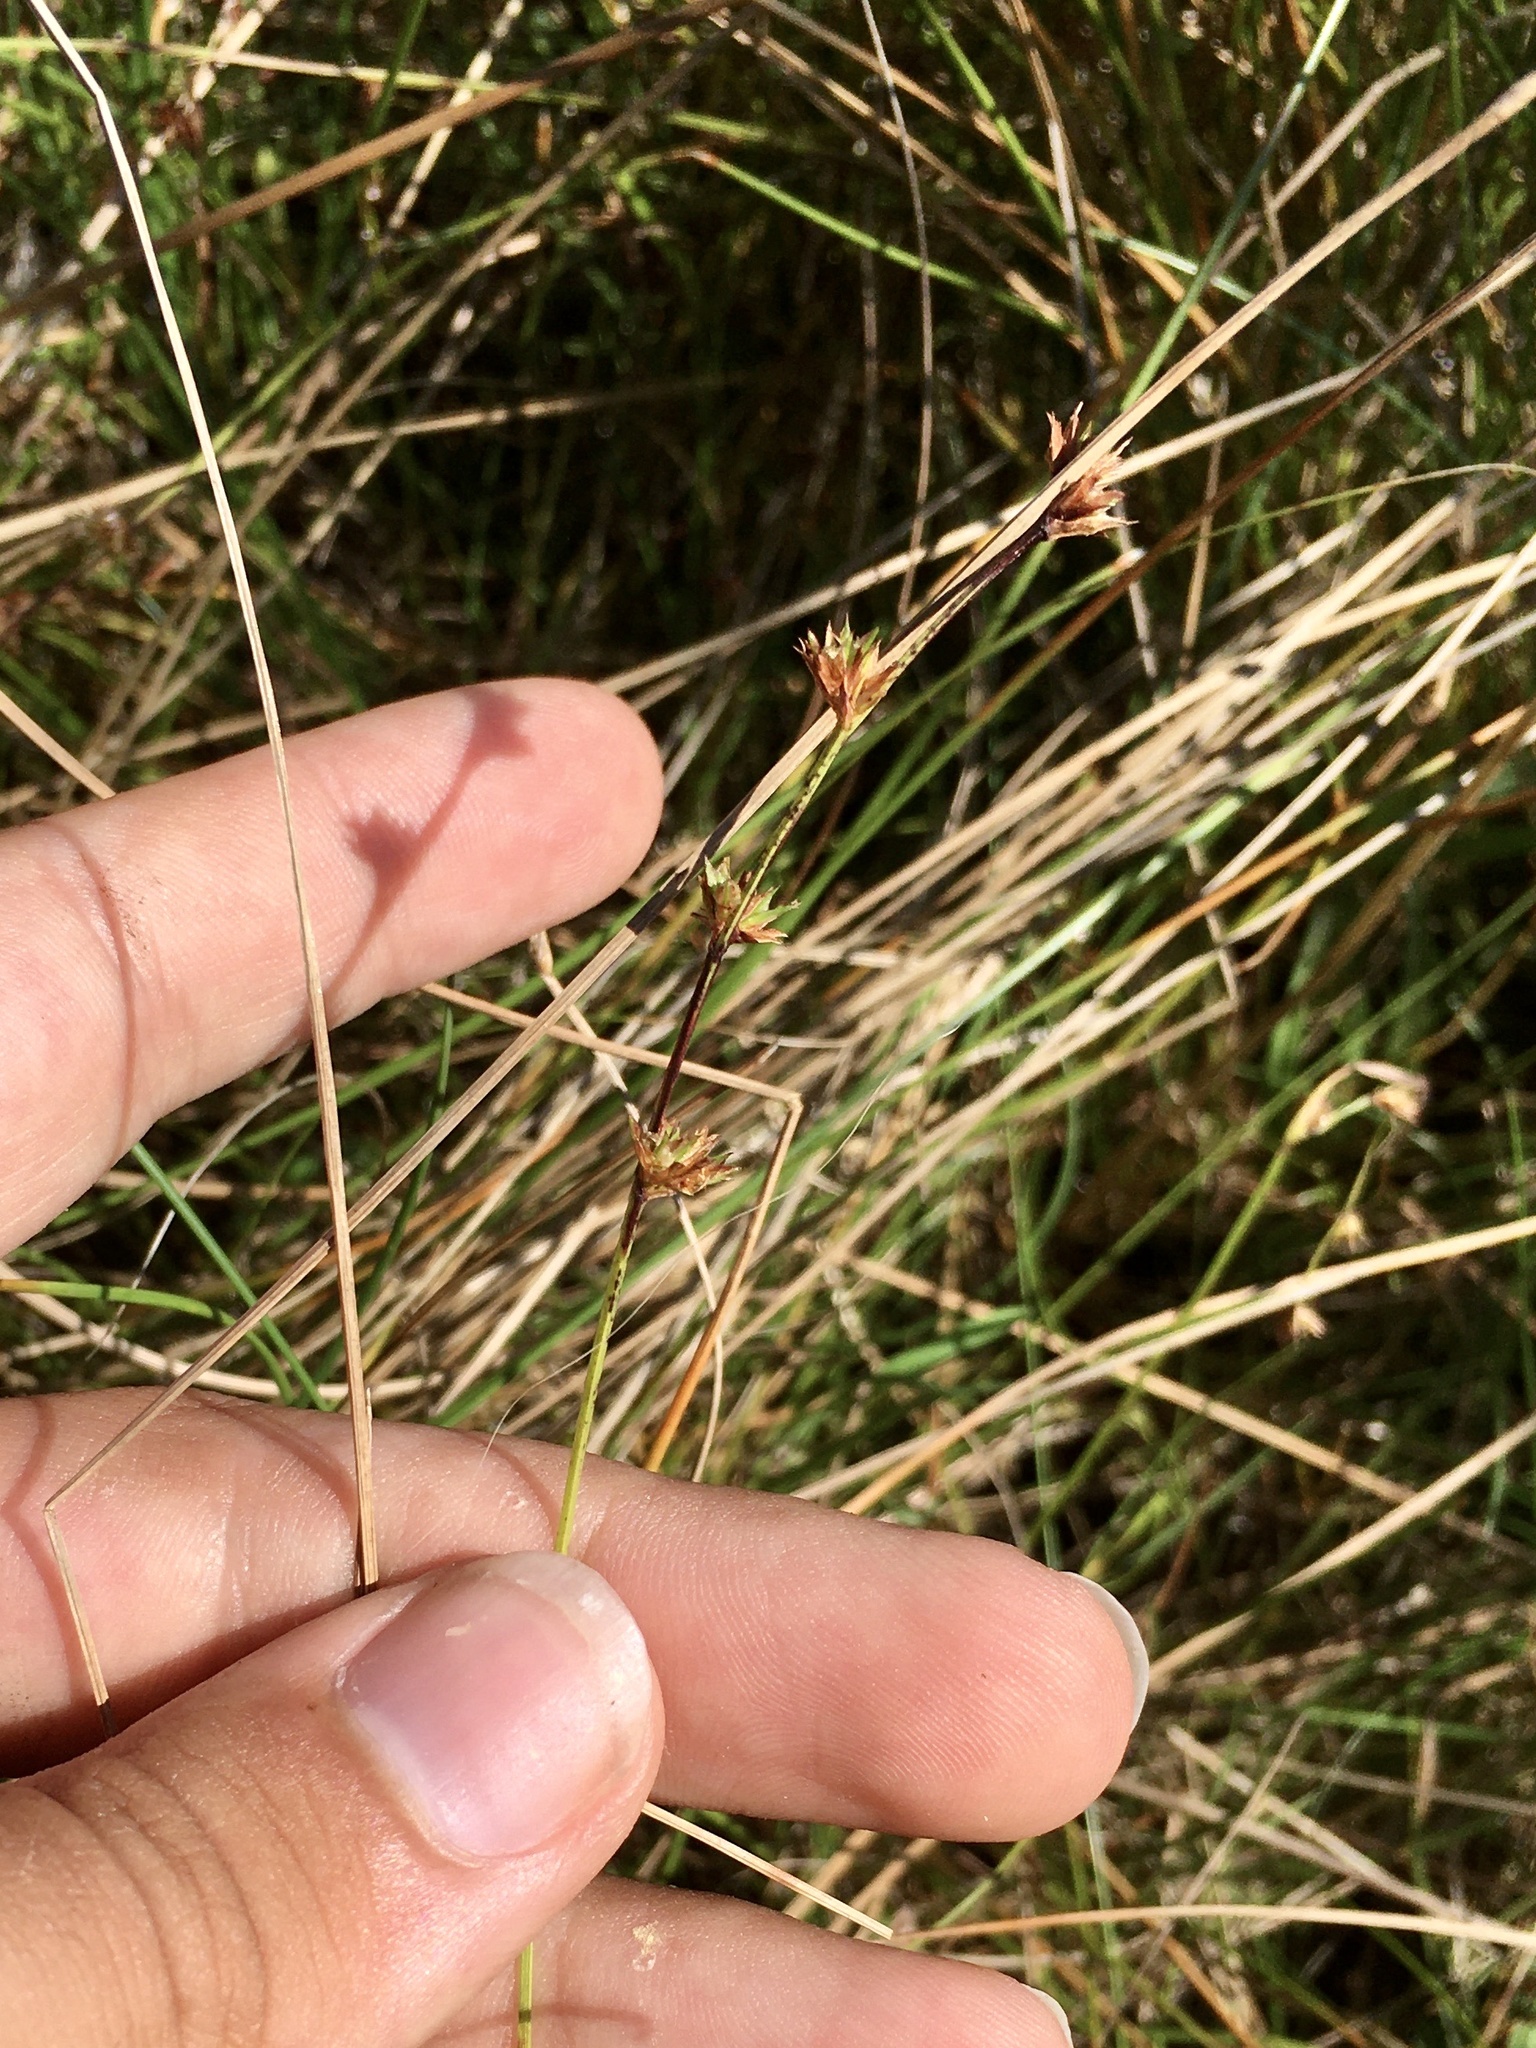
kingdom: Plantae
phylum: Tracheophyta
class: Liliopsida
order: Poales
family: Cyperaceae
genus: Scleria
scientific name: Scleria verticillata
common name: Low nutrush
